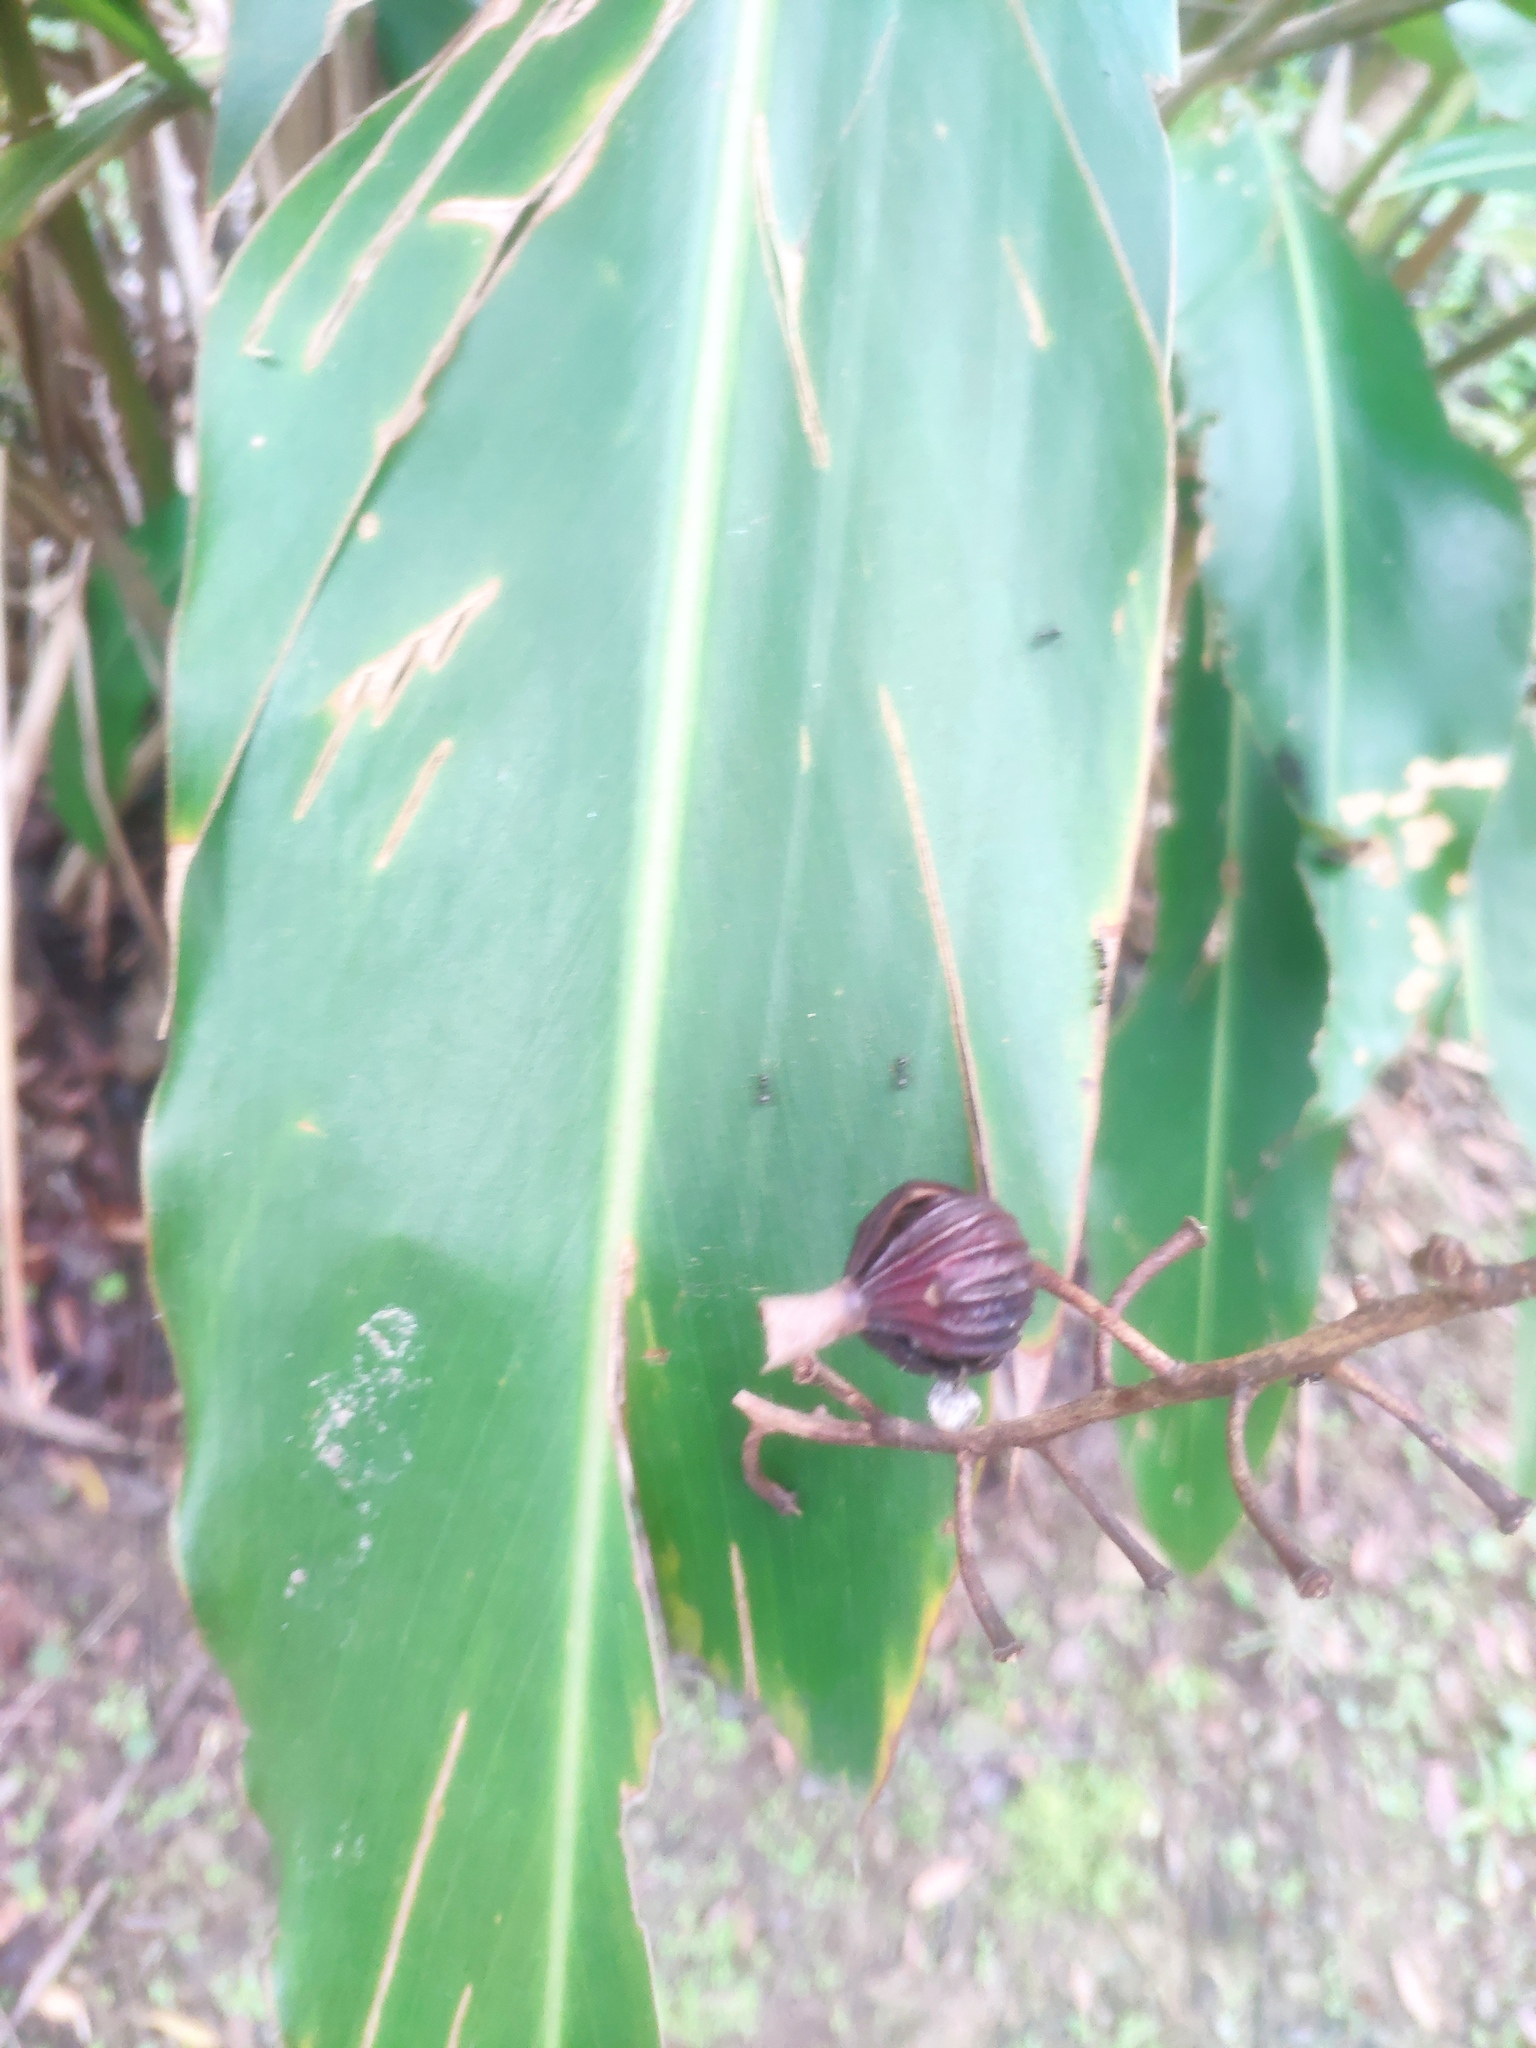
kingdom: Plantae
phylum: Tracheophyta
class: Liliopsida
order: Zingiberales
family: Zingiberaceae
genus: Alpinia
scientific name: Alpinia zerumbet
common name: Shellplant
